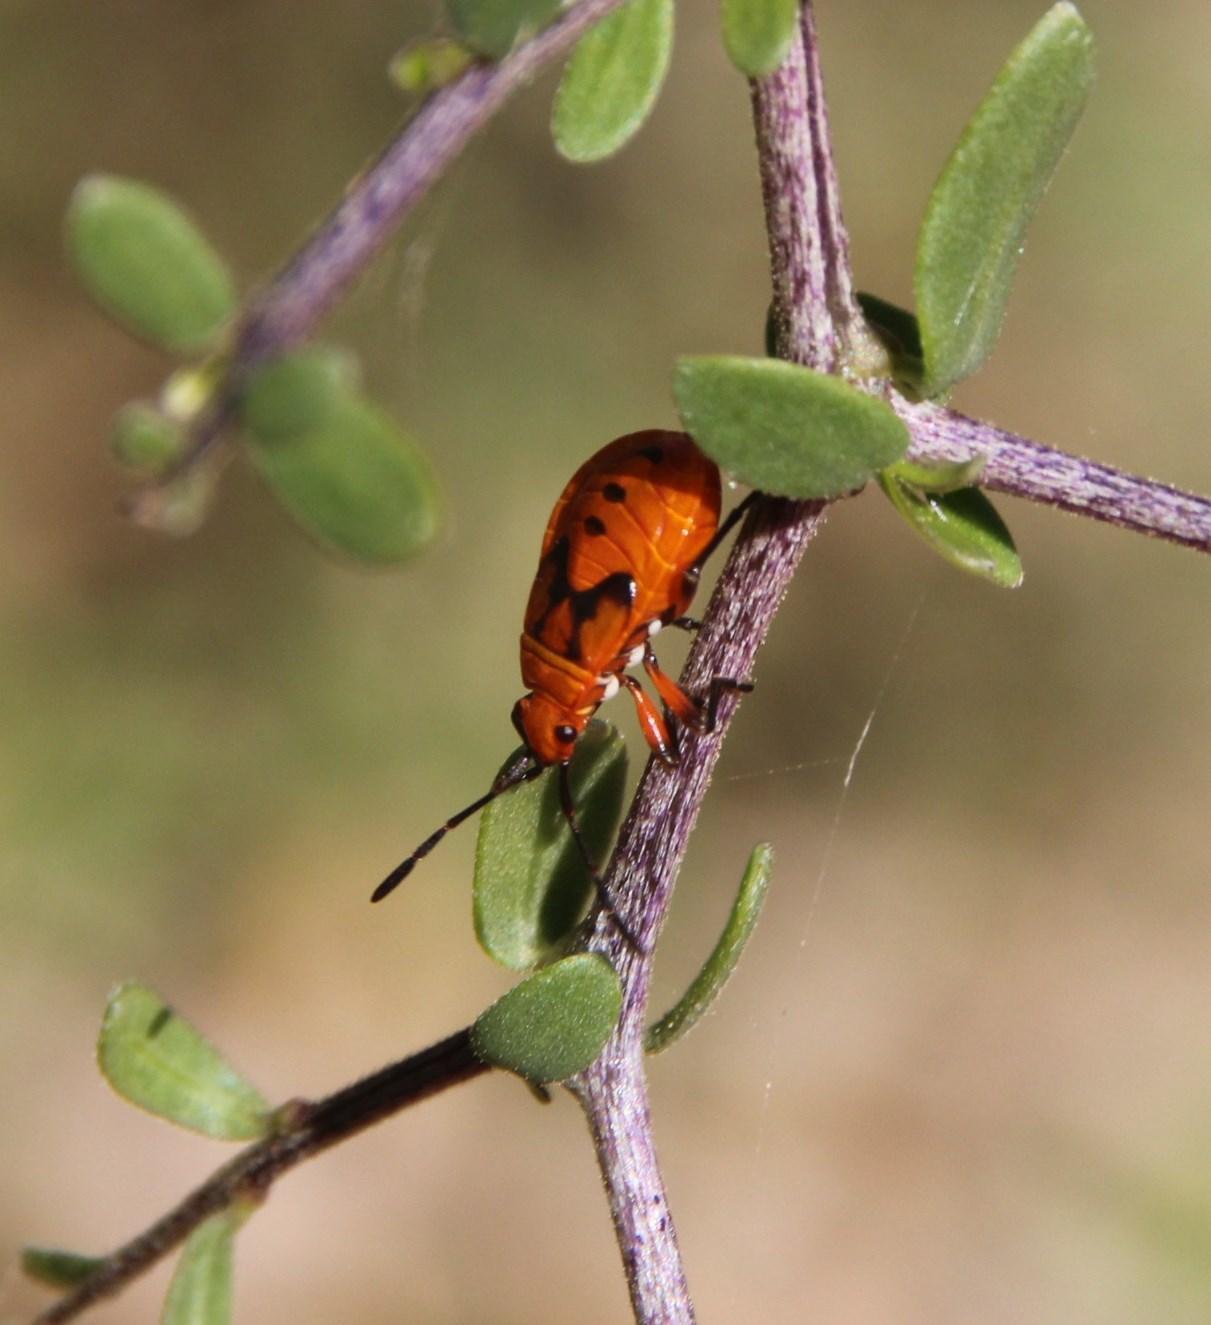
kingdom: Animalia
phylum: Arthropoda
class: Insecta
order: Hemiptera
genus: Cenaeus
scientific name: Cenaeus
